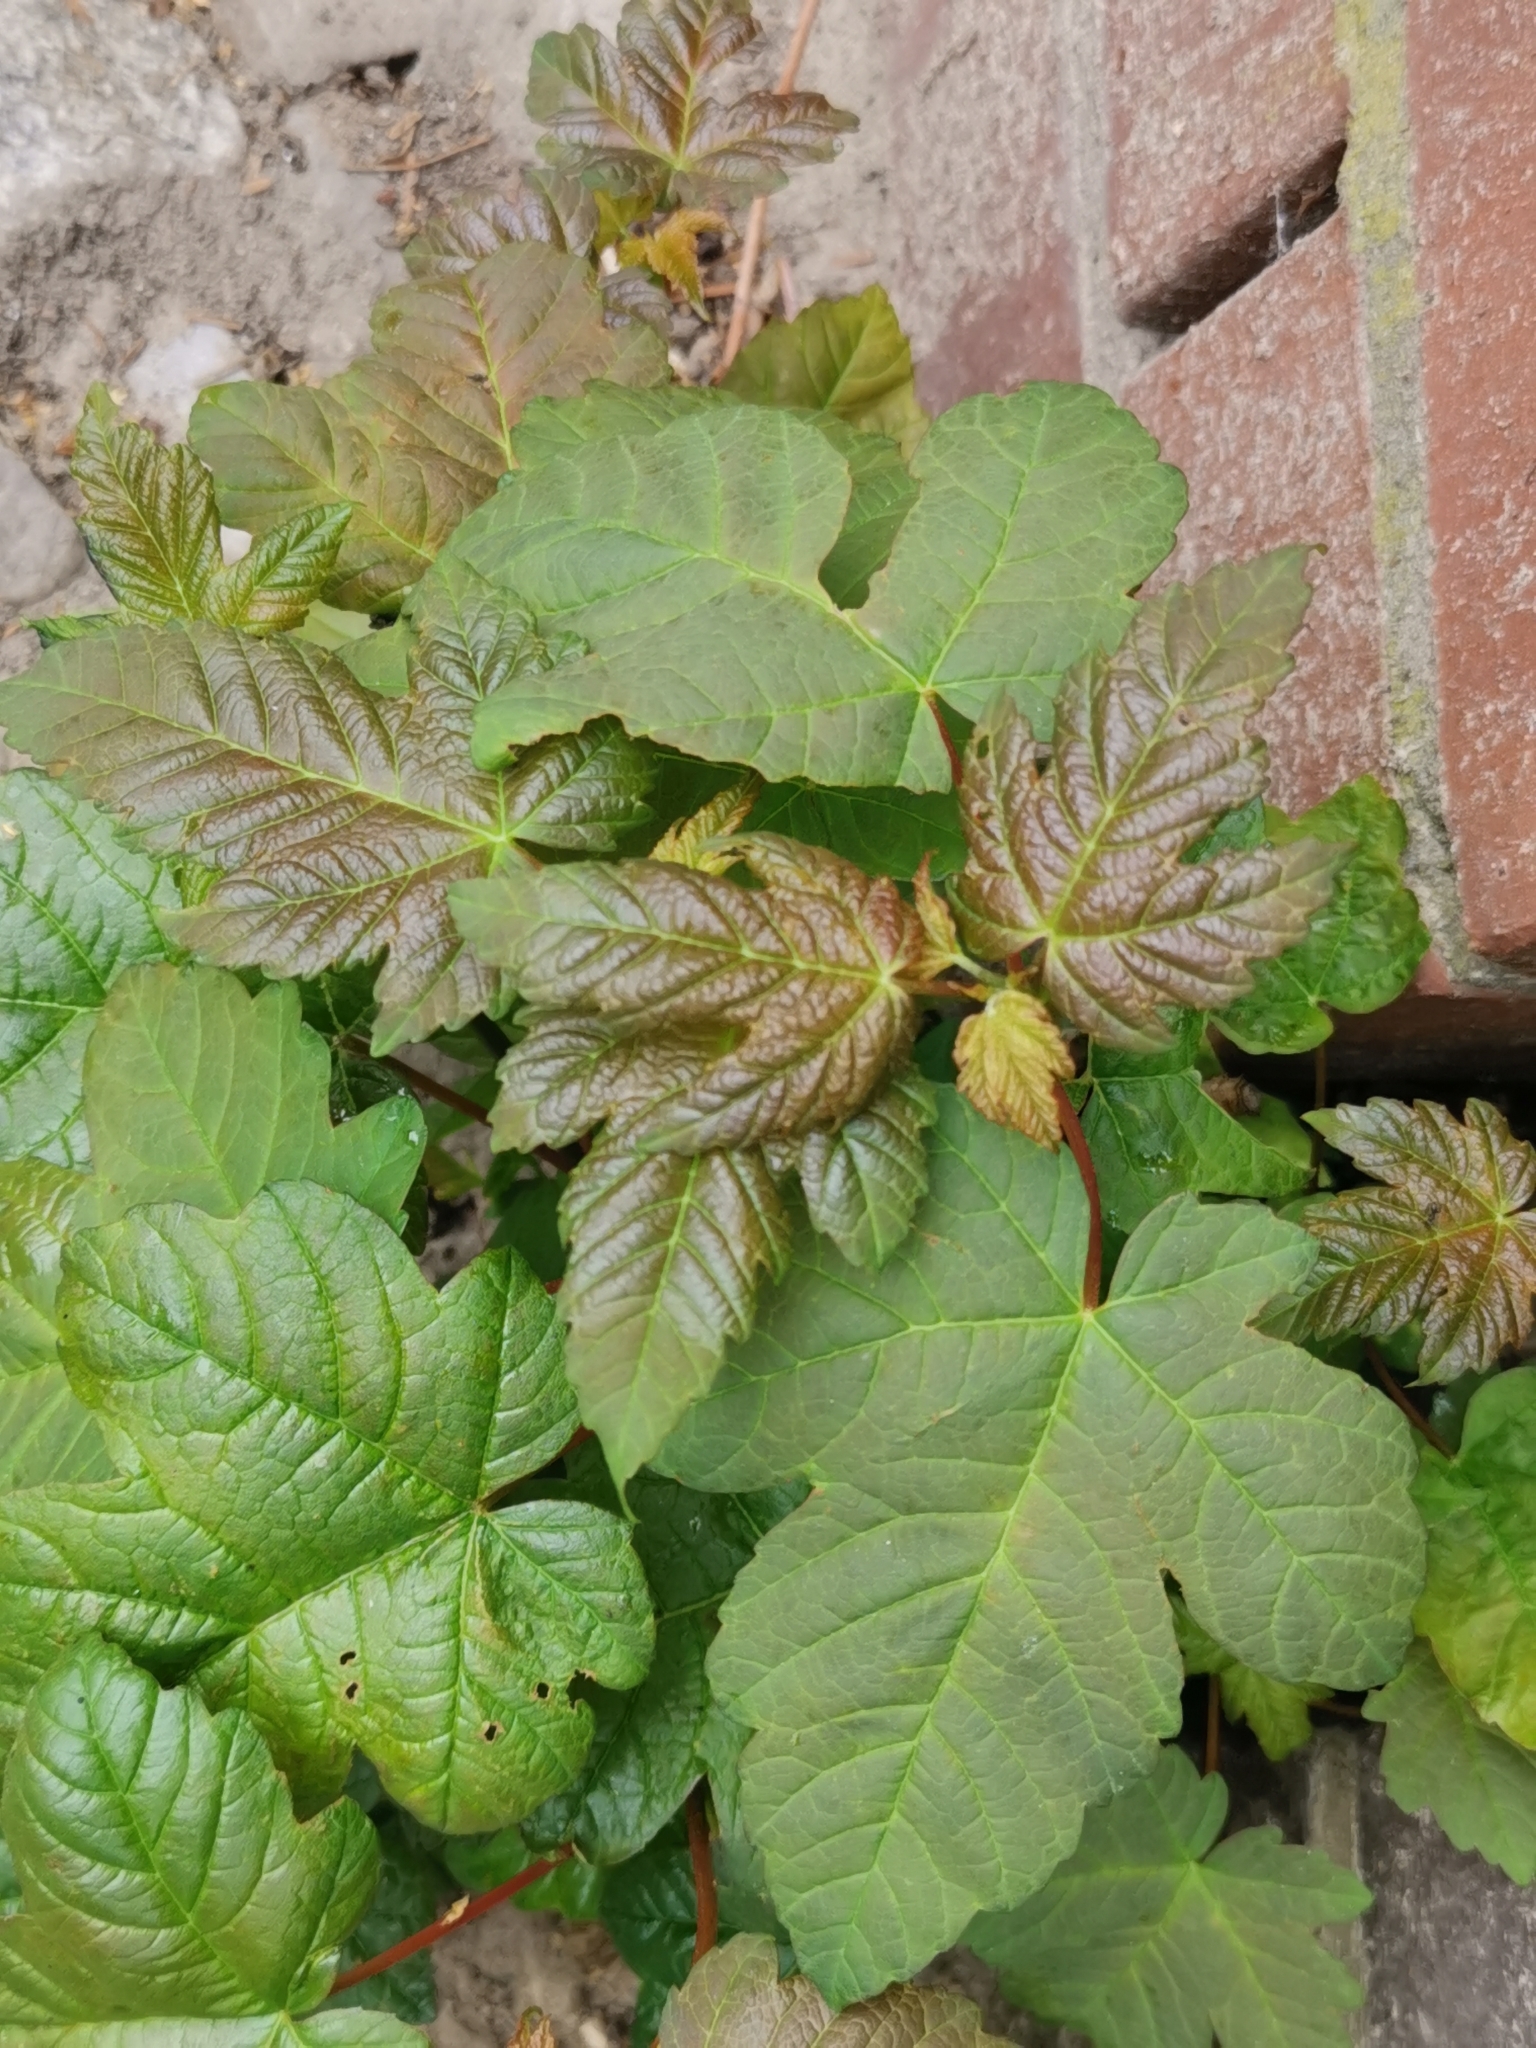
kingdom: Plantae
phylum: Tracheophyta
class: Magnoliopsida
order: Sapindales
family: Sapindaceae
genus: Acer
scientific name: Acer pseudoplatanus
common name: Sycamore
